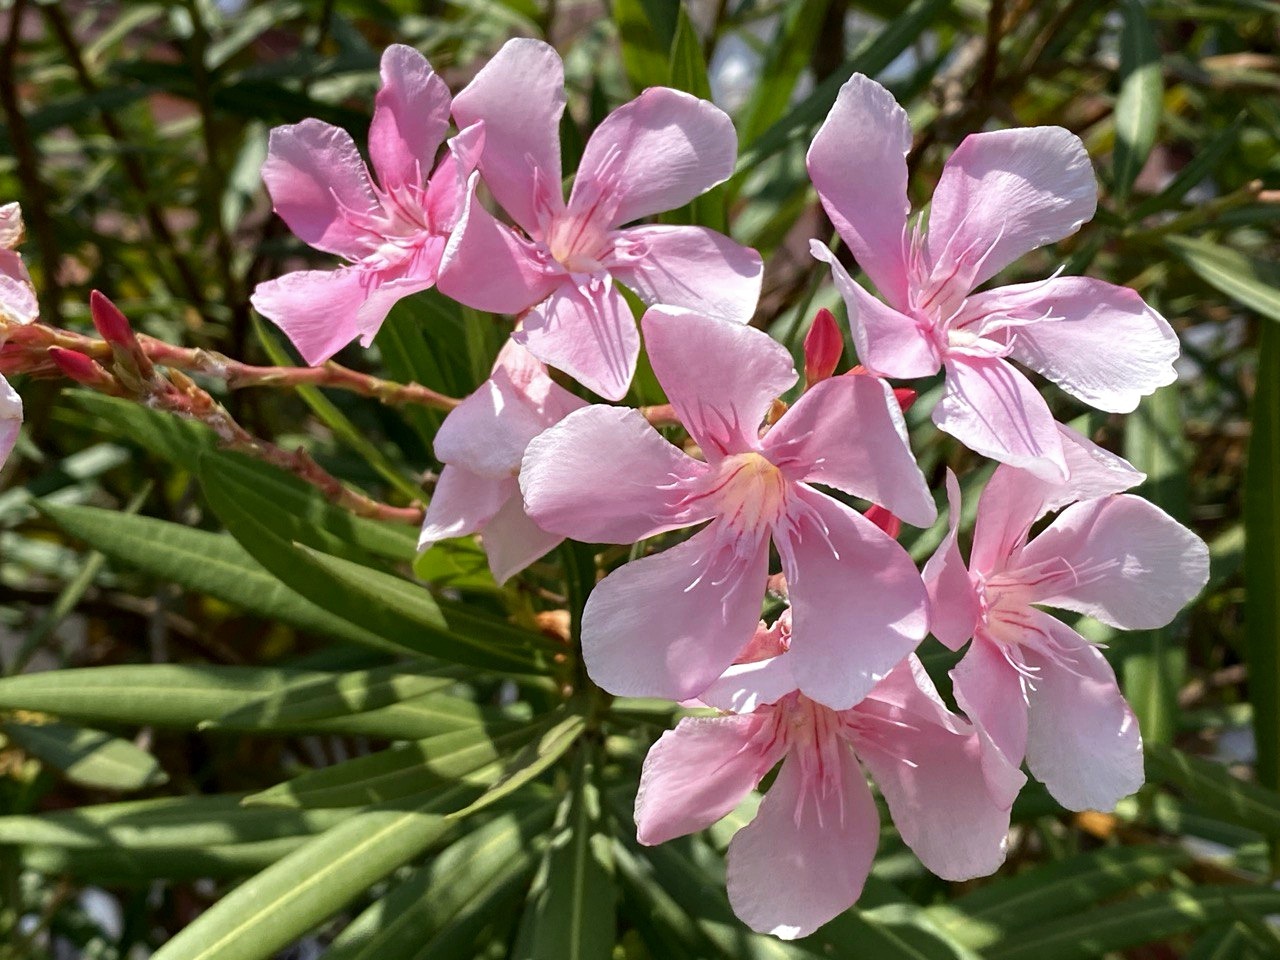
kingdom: Plantae
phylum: Tracheophyta
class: Magnoliopsida
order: Gentianales
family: Apocynaceae
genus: Nerium
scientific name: Nerium oleander
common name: Oleander
